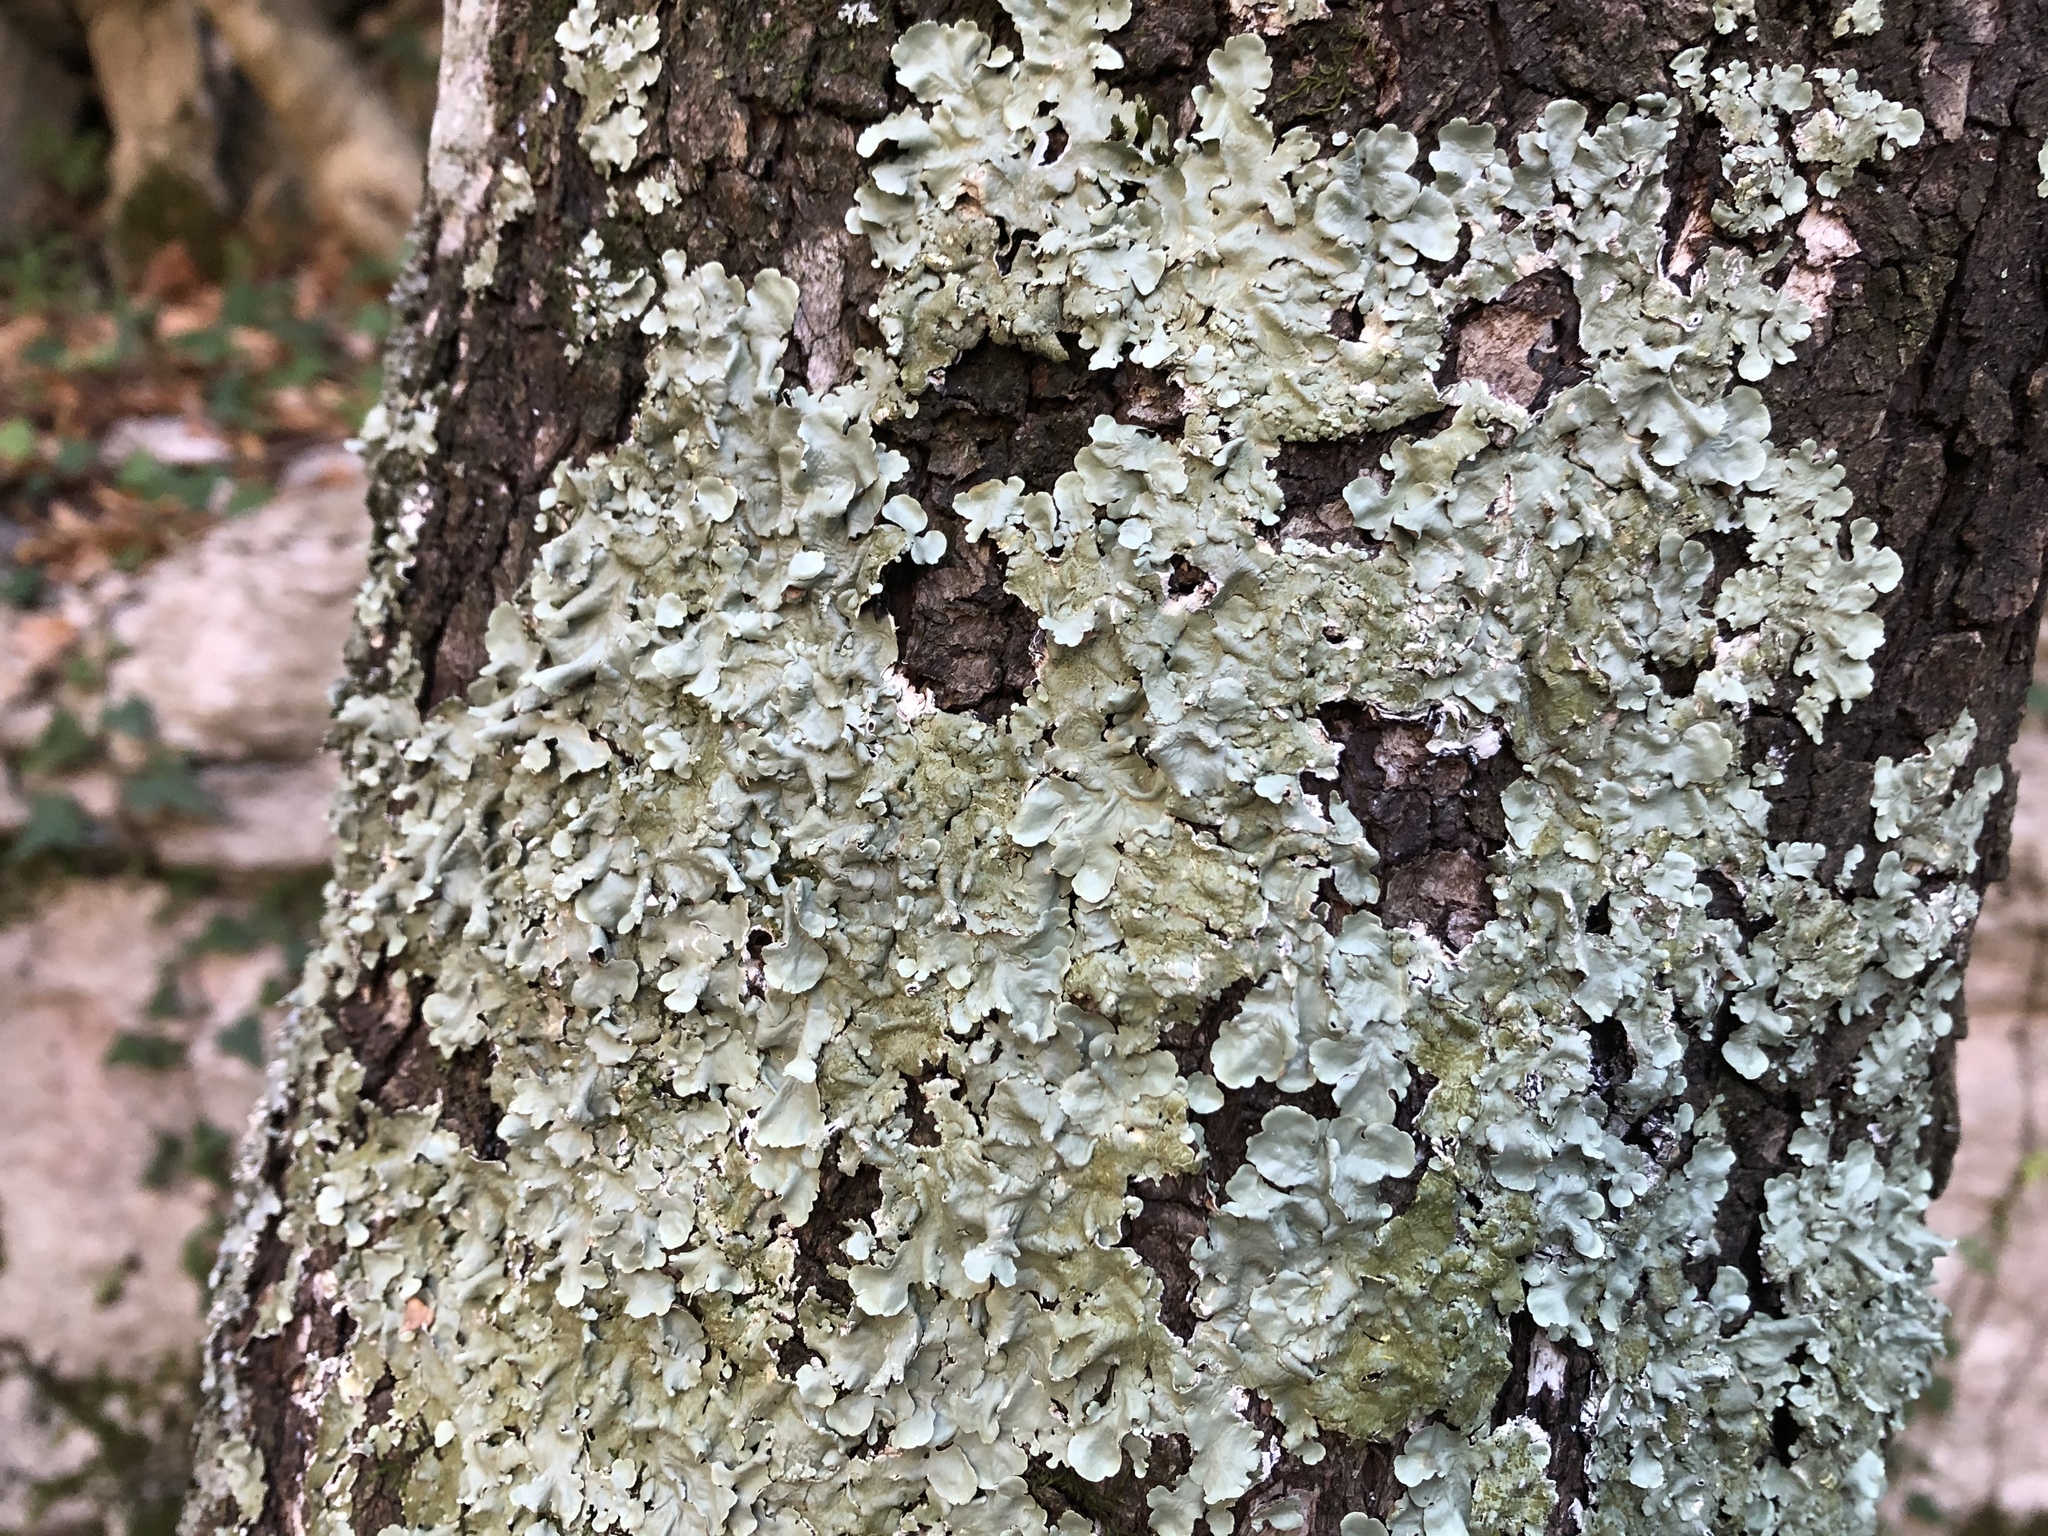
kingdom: Fungi
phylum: Ascomycota
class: Lecanoromycetes
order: Lecanorales
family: Parmeliaceae
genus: Flavoparmelia
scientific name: Flavoparmelia caperata
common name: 40-mile per hour lichen
